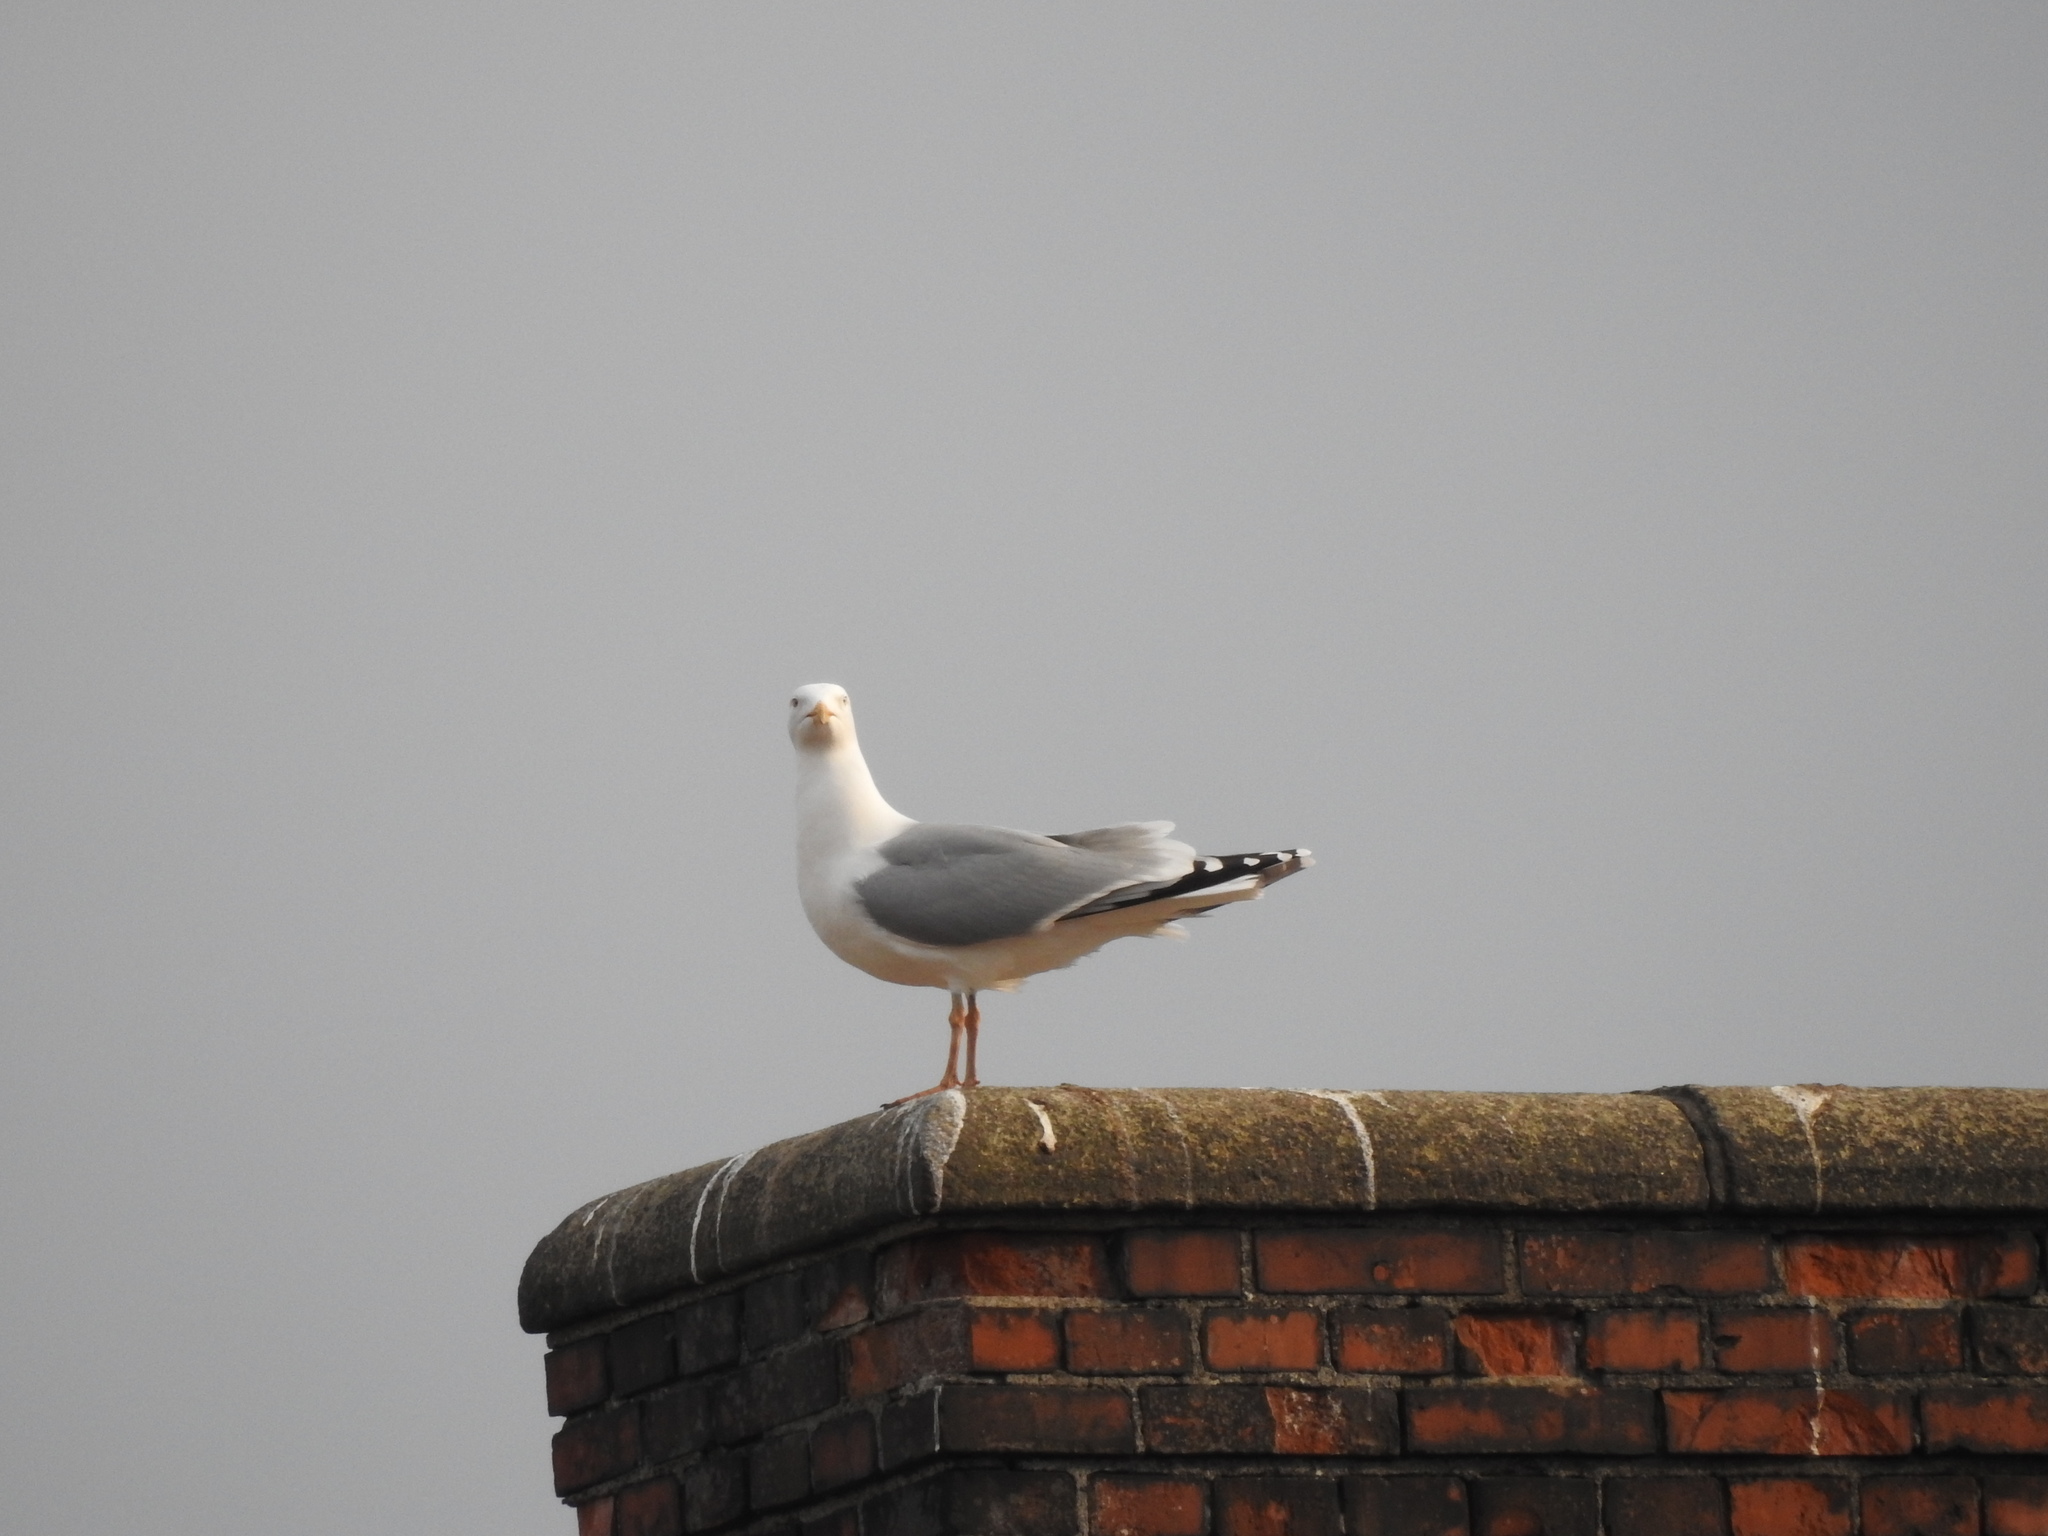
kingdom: Animalia
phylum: Chordata
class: Aves
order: Charadriiformes
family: Laridae
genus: Larus
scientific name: Larus argentatus
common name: Herring gull
